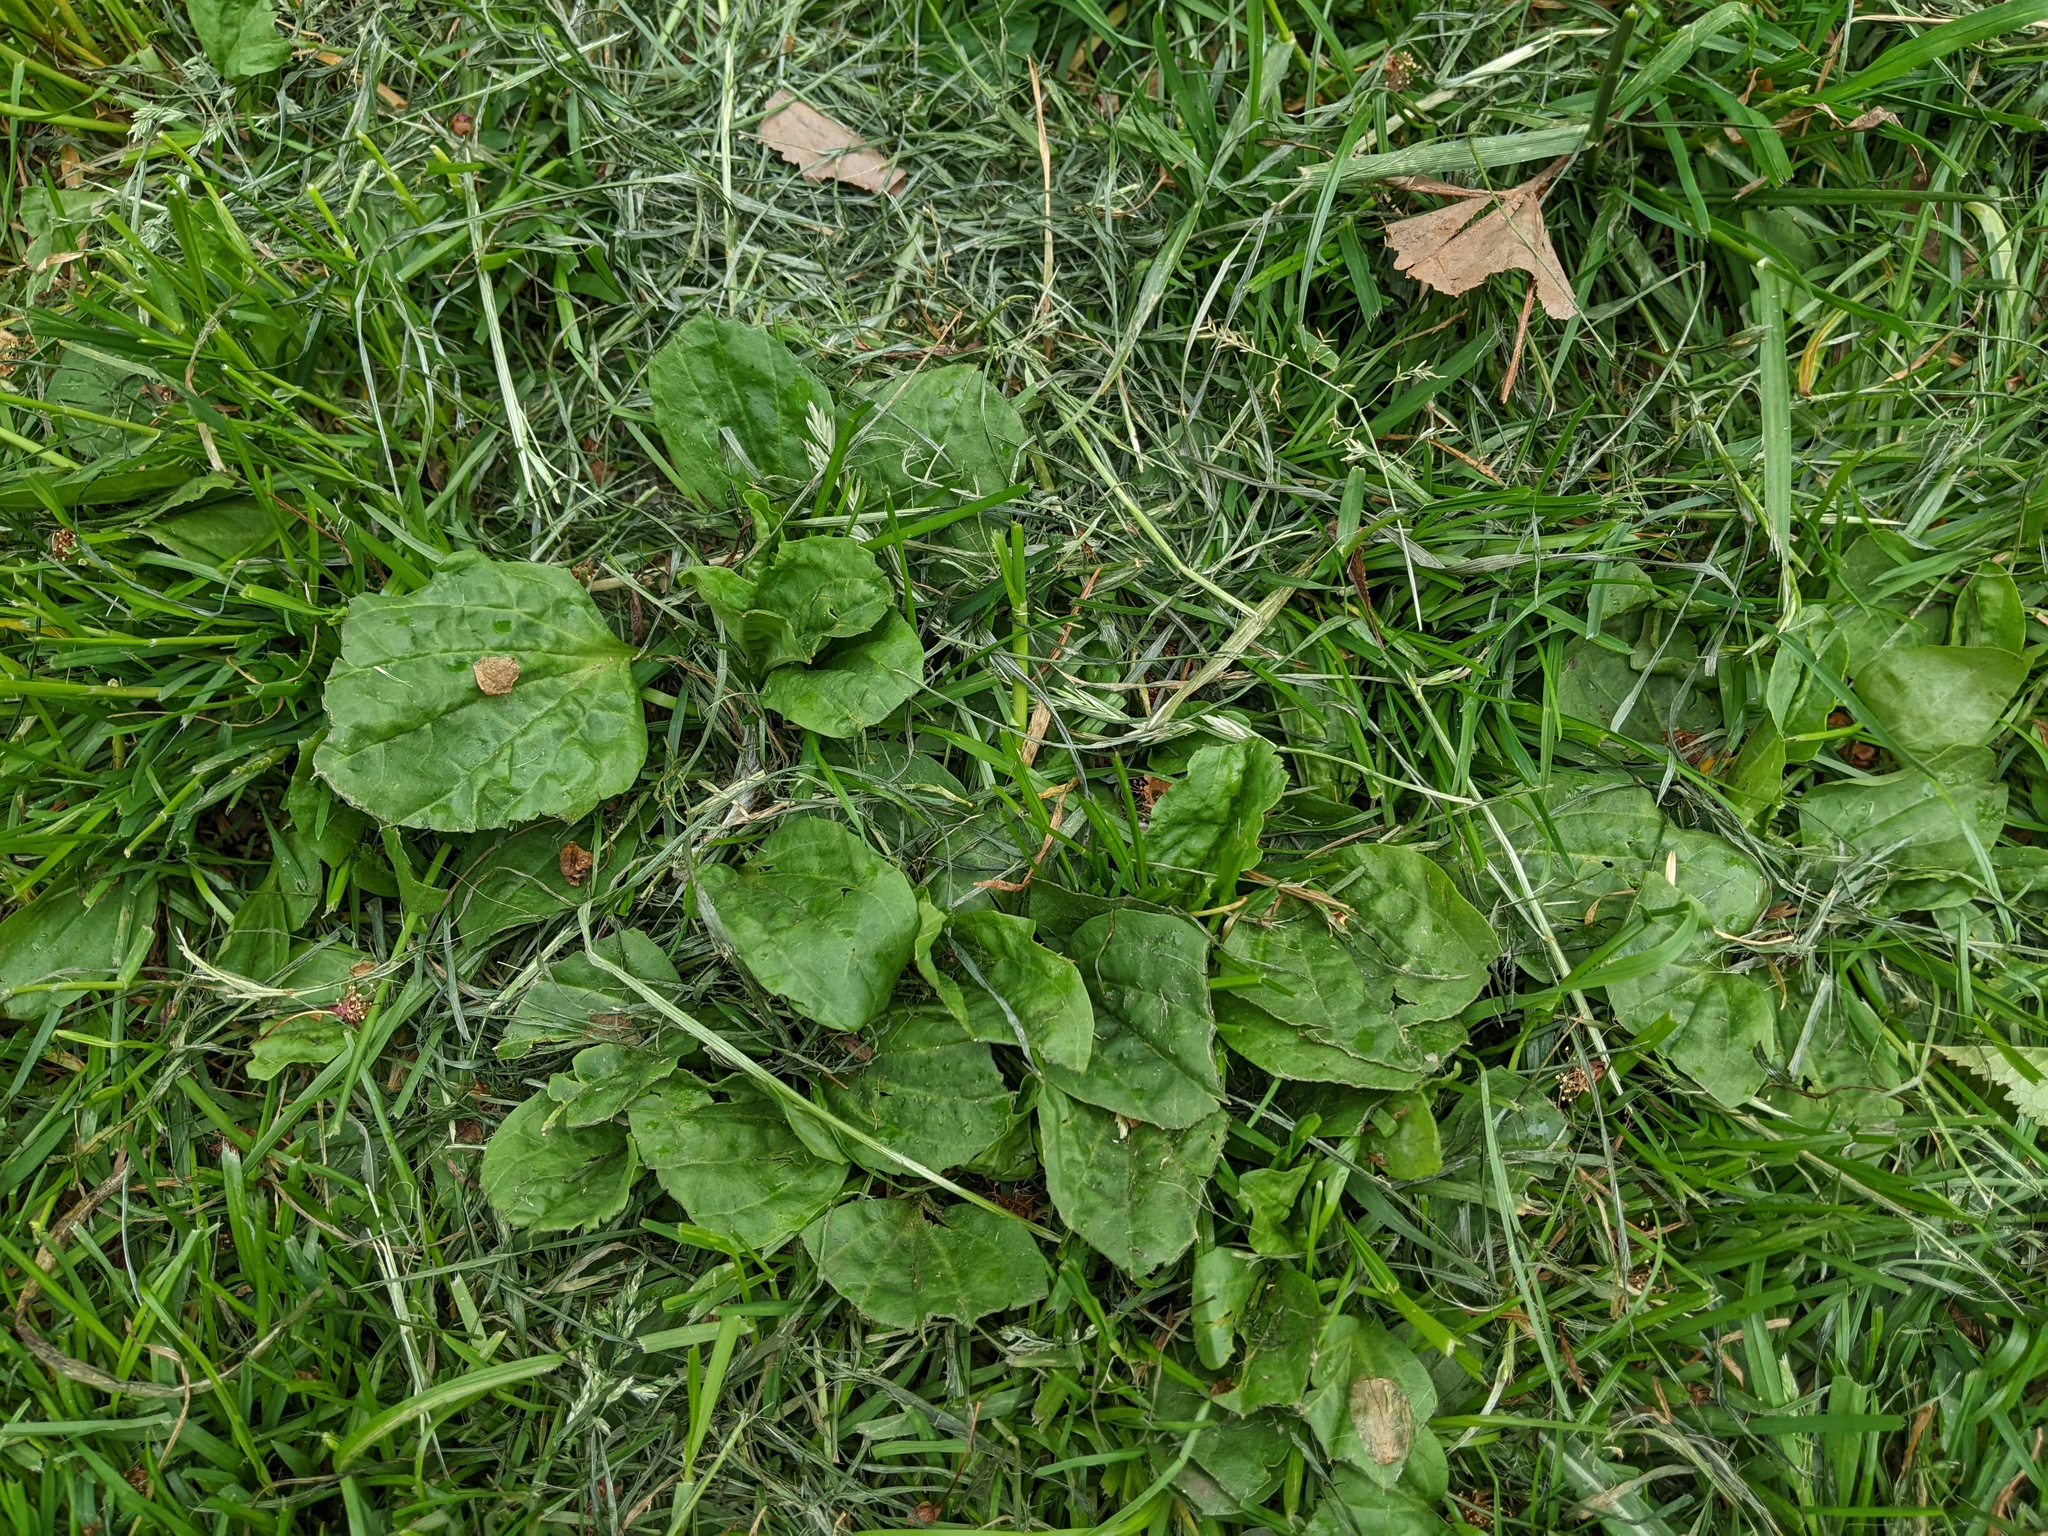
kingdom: Plantae
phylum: Tracheophyta
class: Magnoliopsida
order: Lamiales
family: Plantaginaceae
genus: Plantago
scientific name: Plantago major
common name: Common plantain
